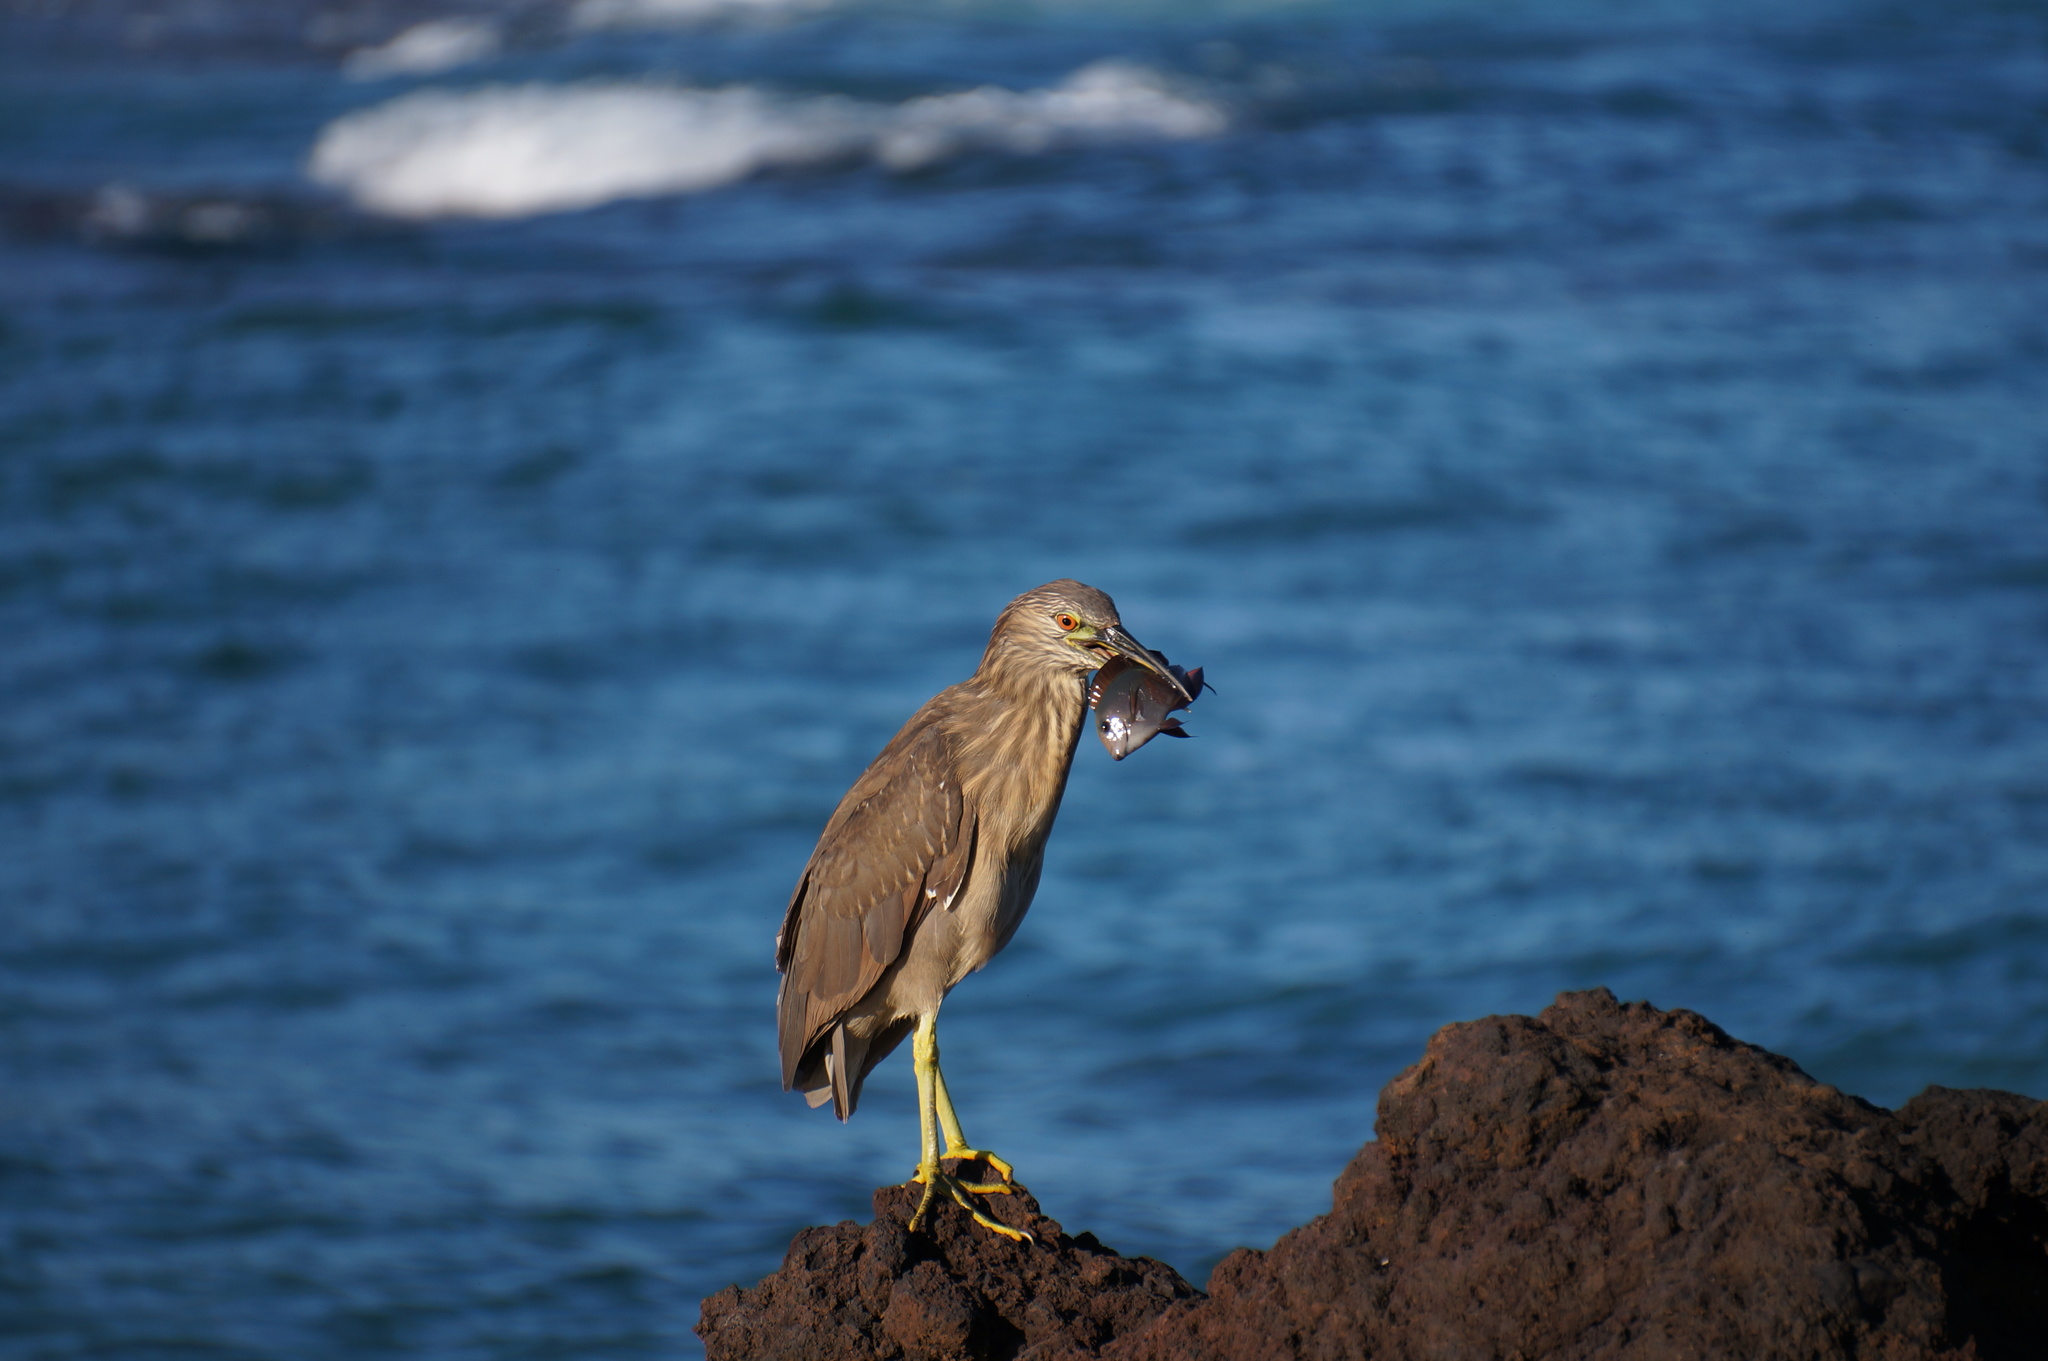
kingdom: Animalia
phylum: Chordata
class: Aves
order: Pelecaniformes
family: Ardeidae
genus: Nycticorax
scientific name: Nycticorax nycticorax
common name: Black-crowned night heron
